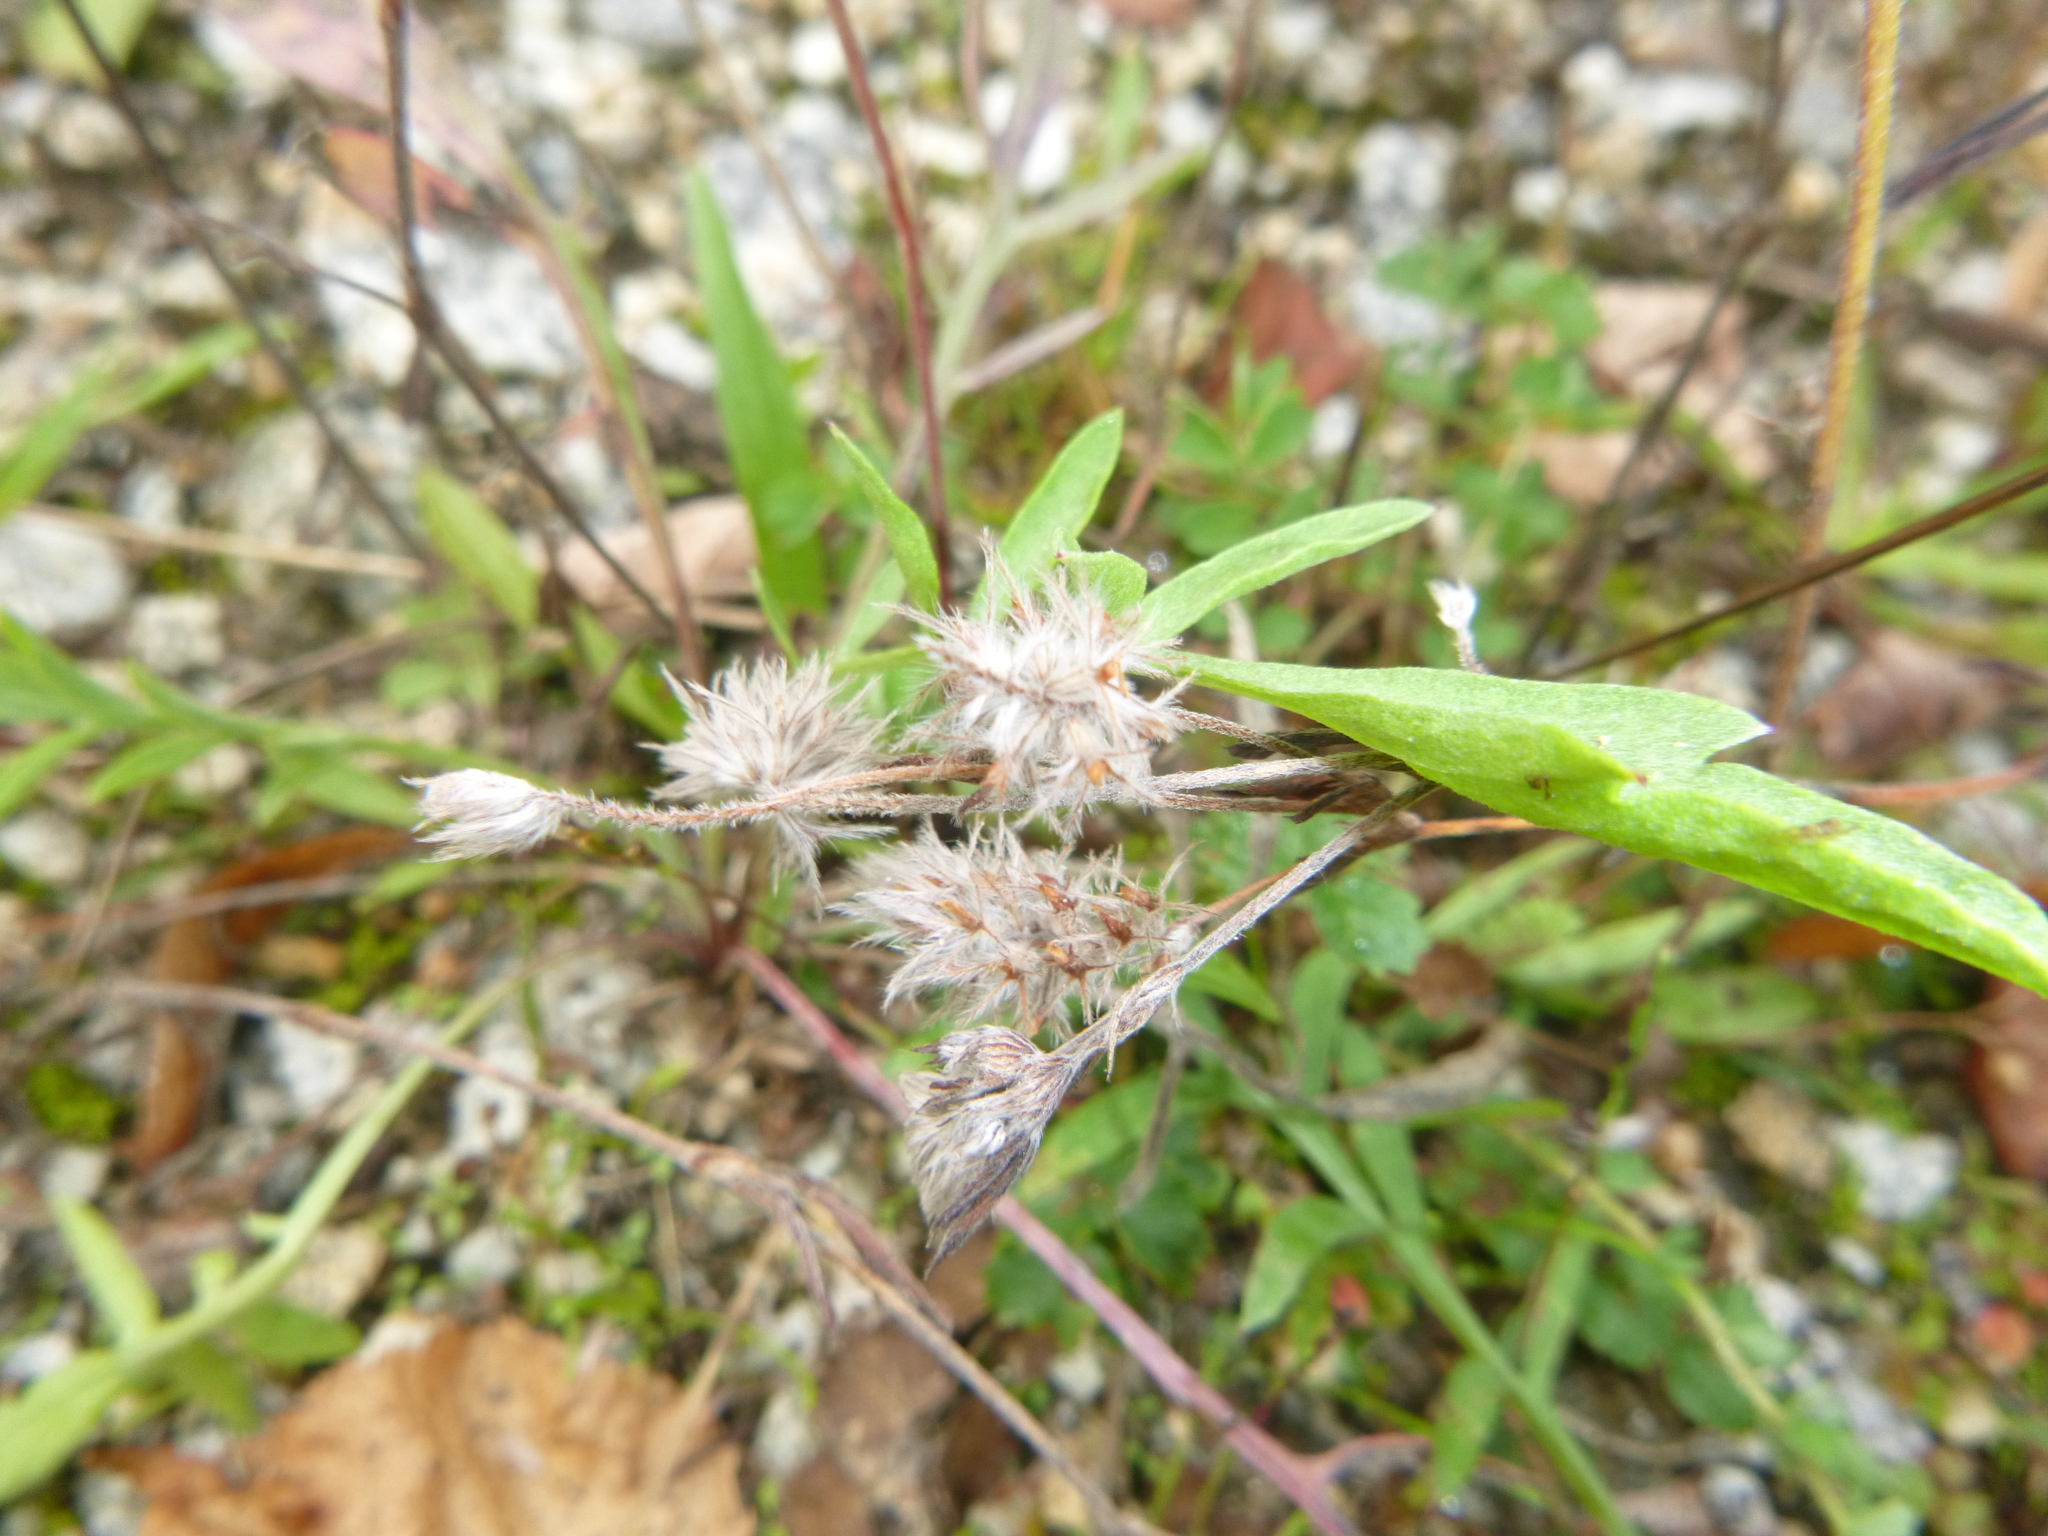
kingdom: Plantae
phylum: Tracheophyta
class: Magnoliopsida
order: Fabales
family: Fabaceae
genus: Trifolium
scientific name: Trifolium arvense
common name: Hare's-foot clover
